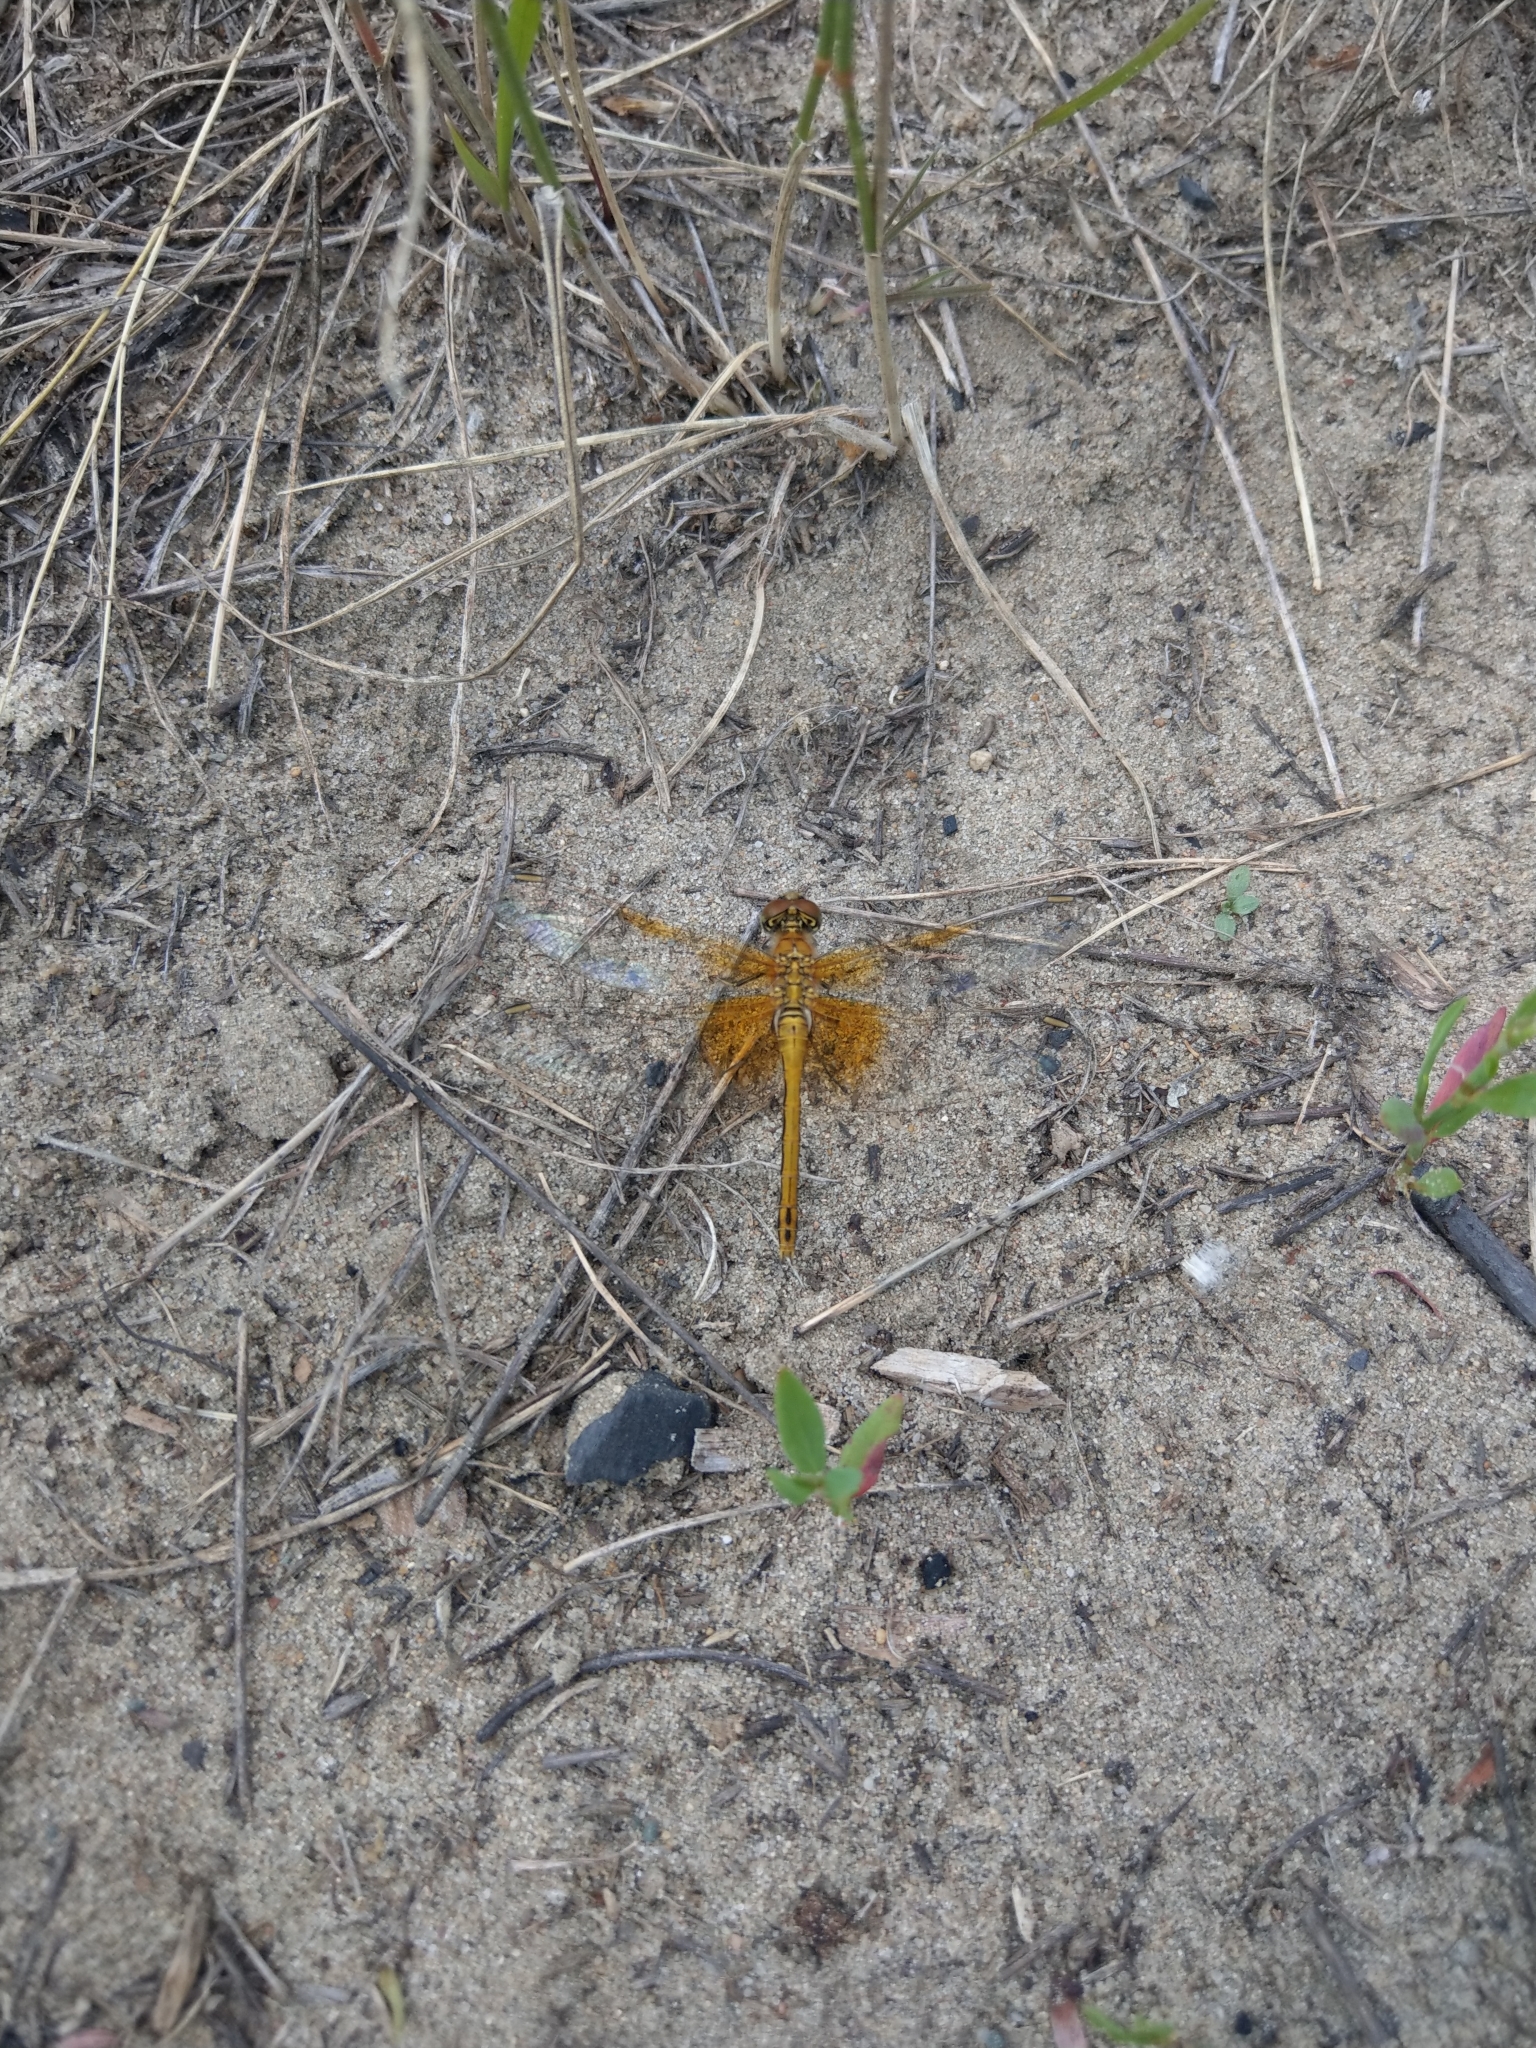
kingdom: Animalia
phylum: Arthropoda
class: Insecta
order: Odonata
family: Libellulidae
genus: Sympetrum
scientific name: Sympetrum flaveolum
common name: Yellow-winged darter
